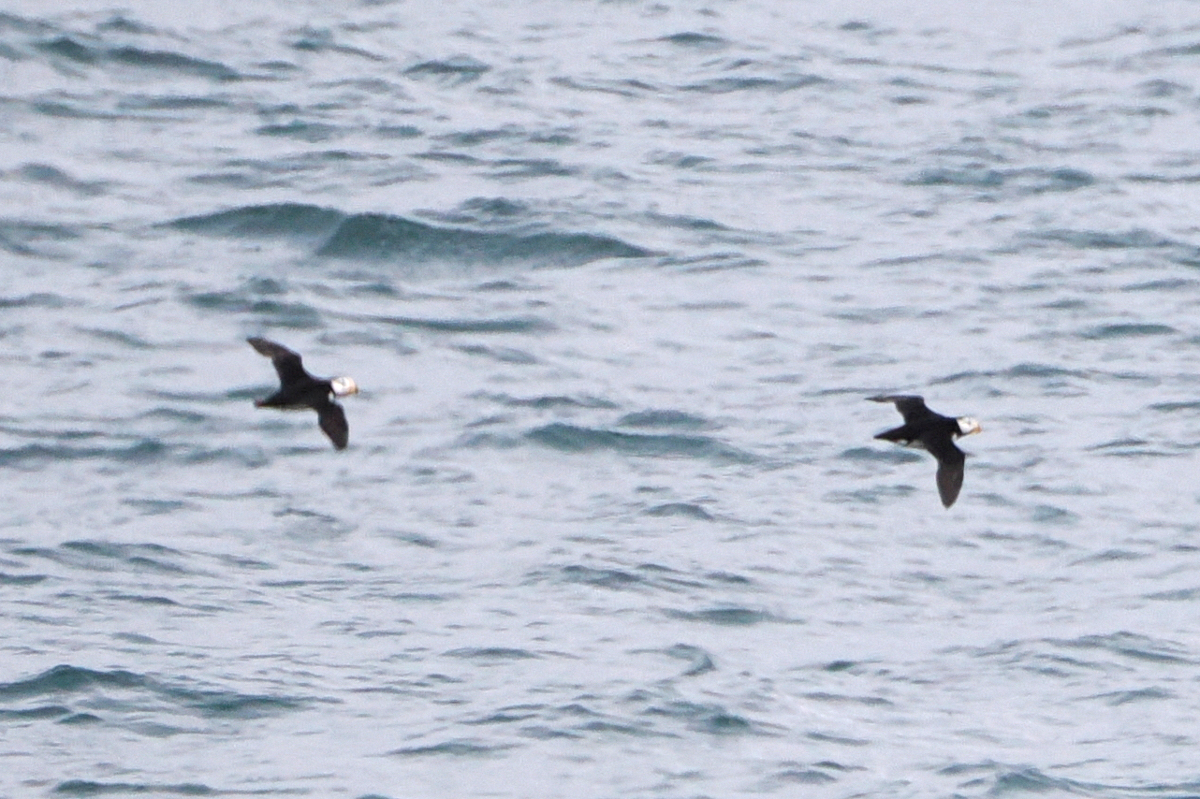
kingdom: Animalia
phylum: Chordata
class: Aves
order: Charadriiformes
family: Alcidae
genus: Fratercula
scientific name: Fratercula corniculata
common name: Horned puffin
